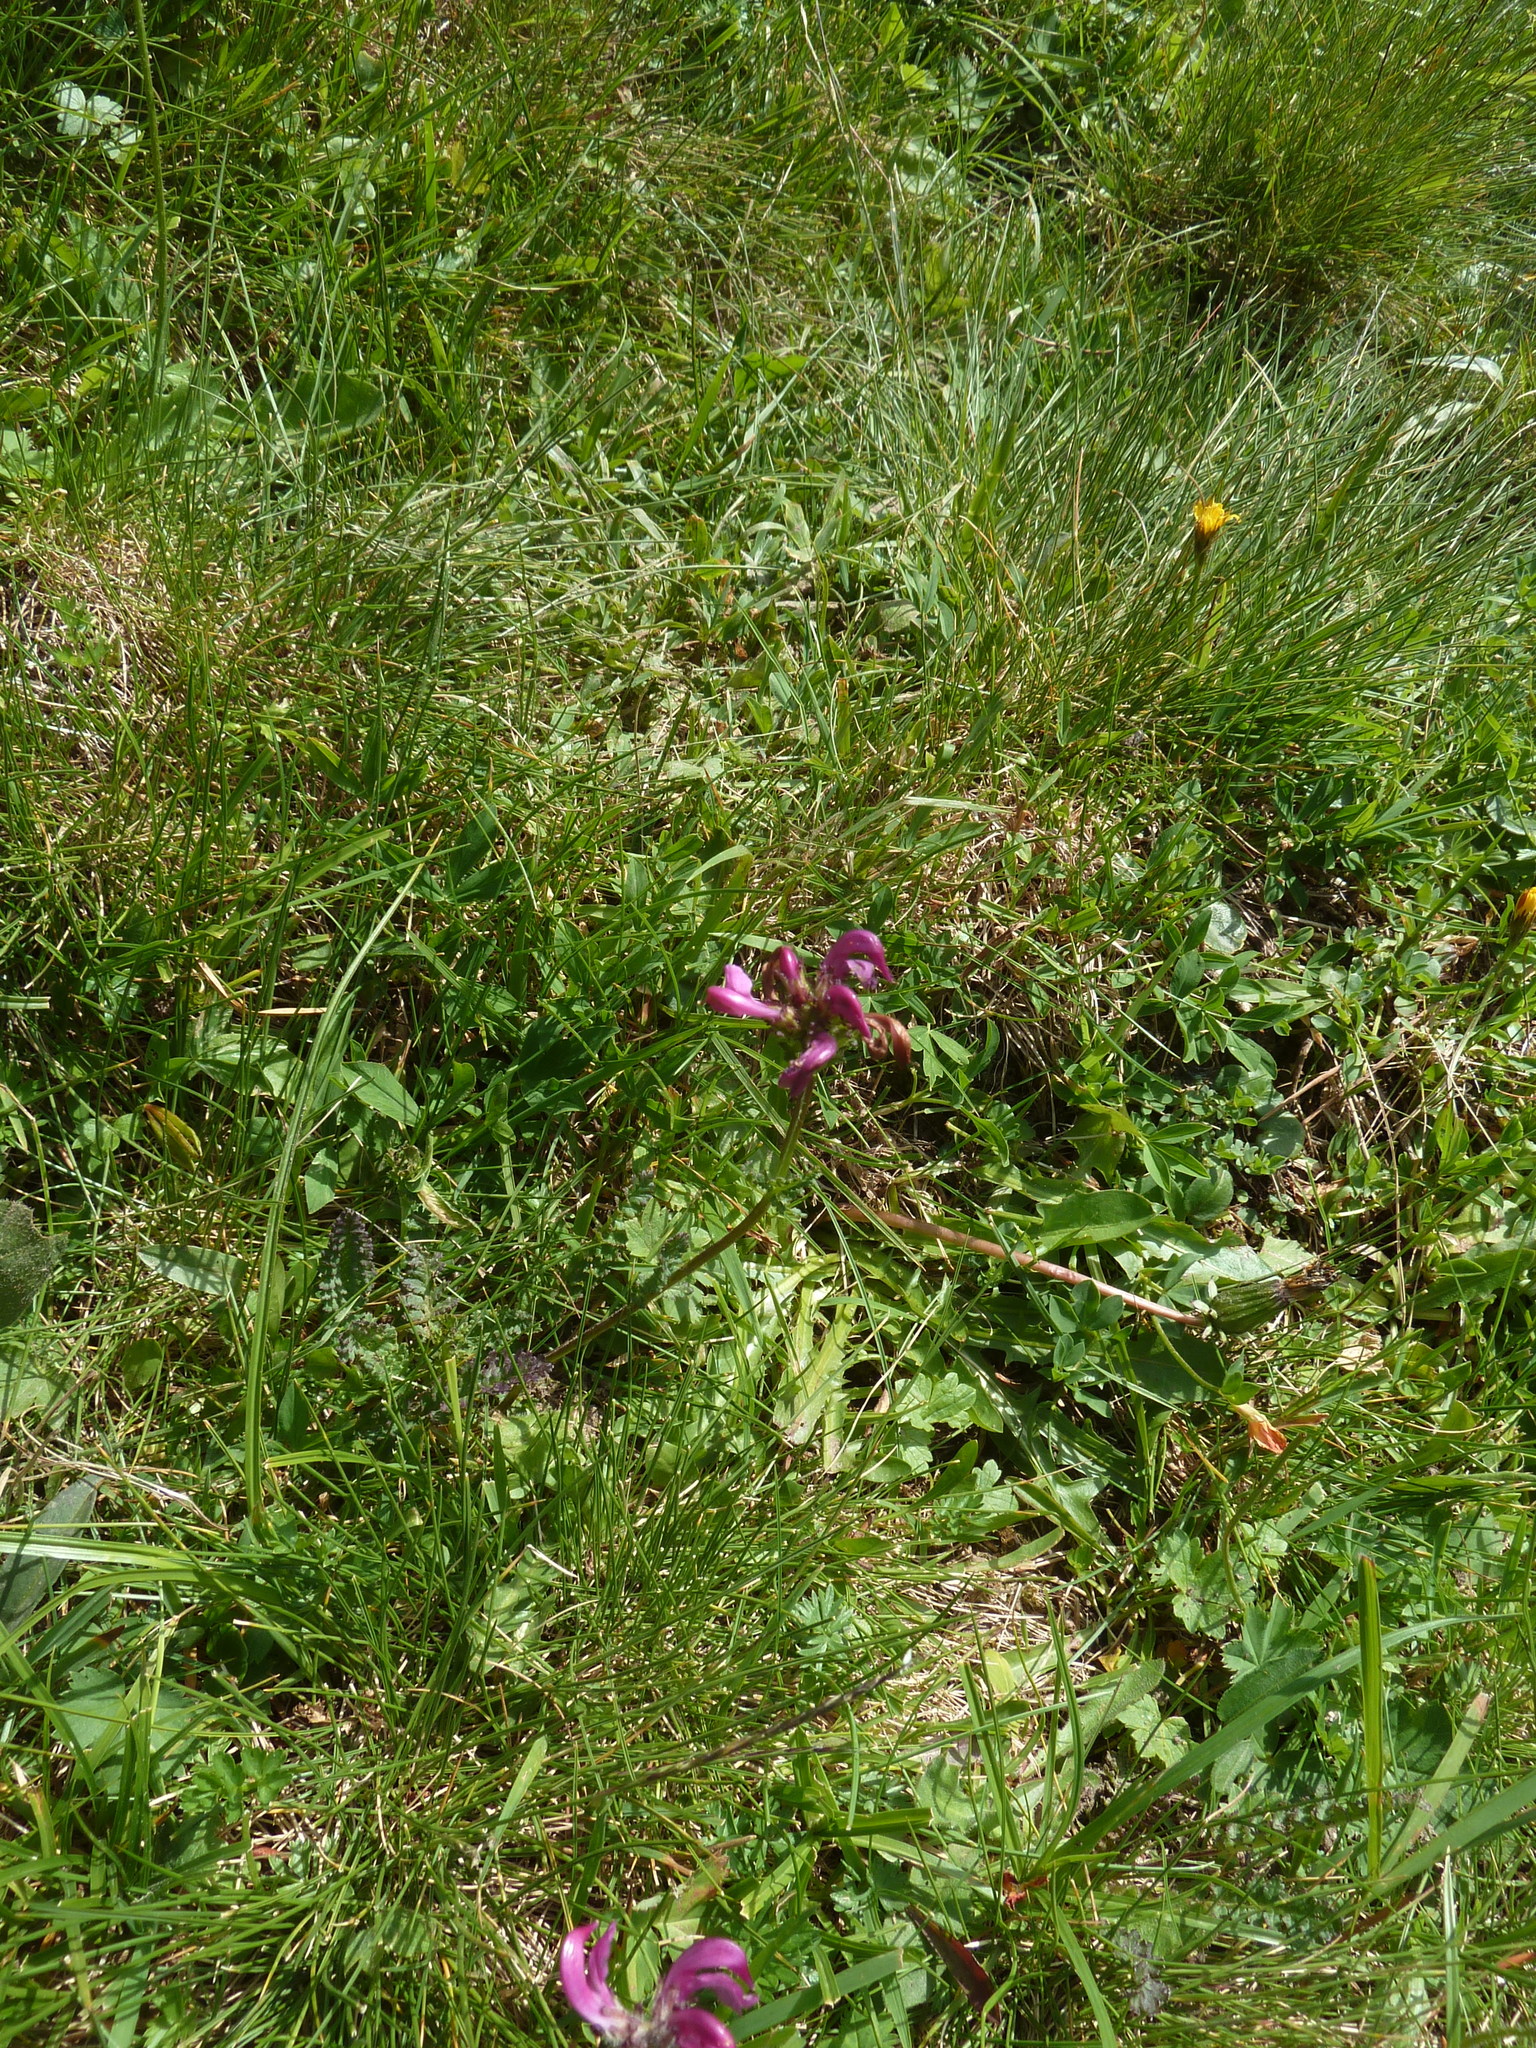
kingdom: Plantae
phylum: Tracheophyta
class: Magnoliopsida
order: Lamiales
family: Orobanchaceae
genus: Pedicularis
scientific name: Pedicularis pyrenaica
